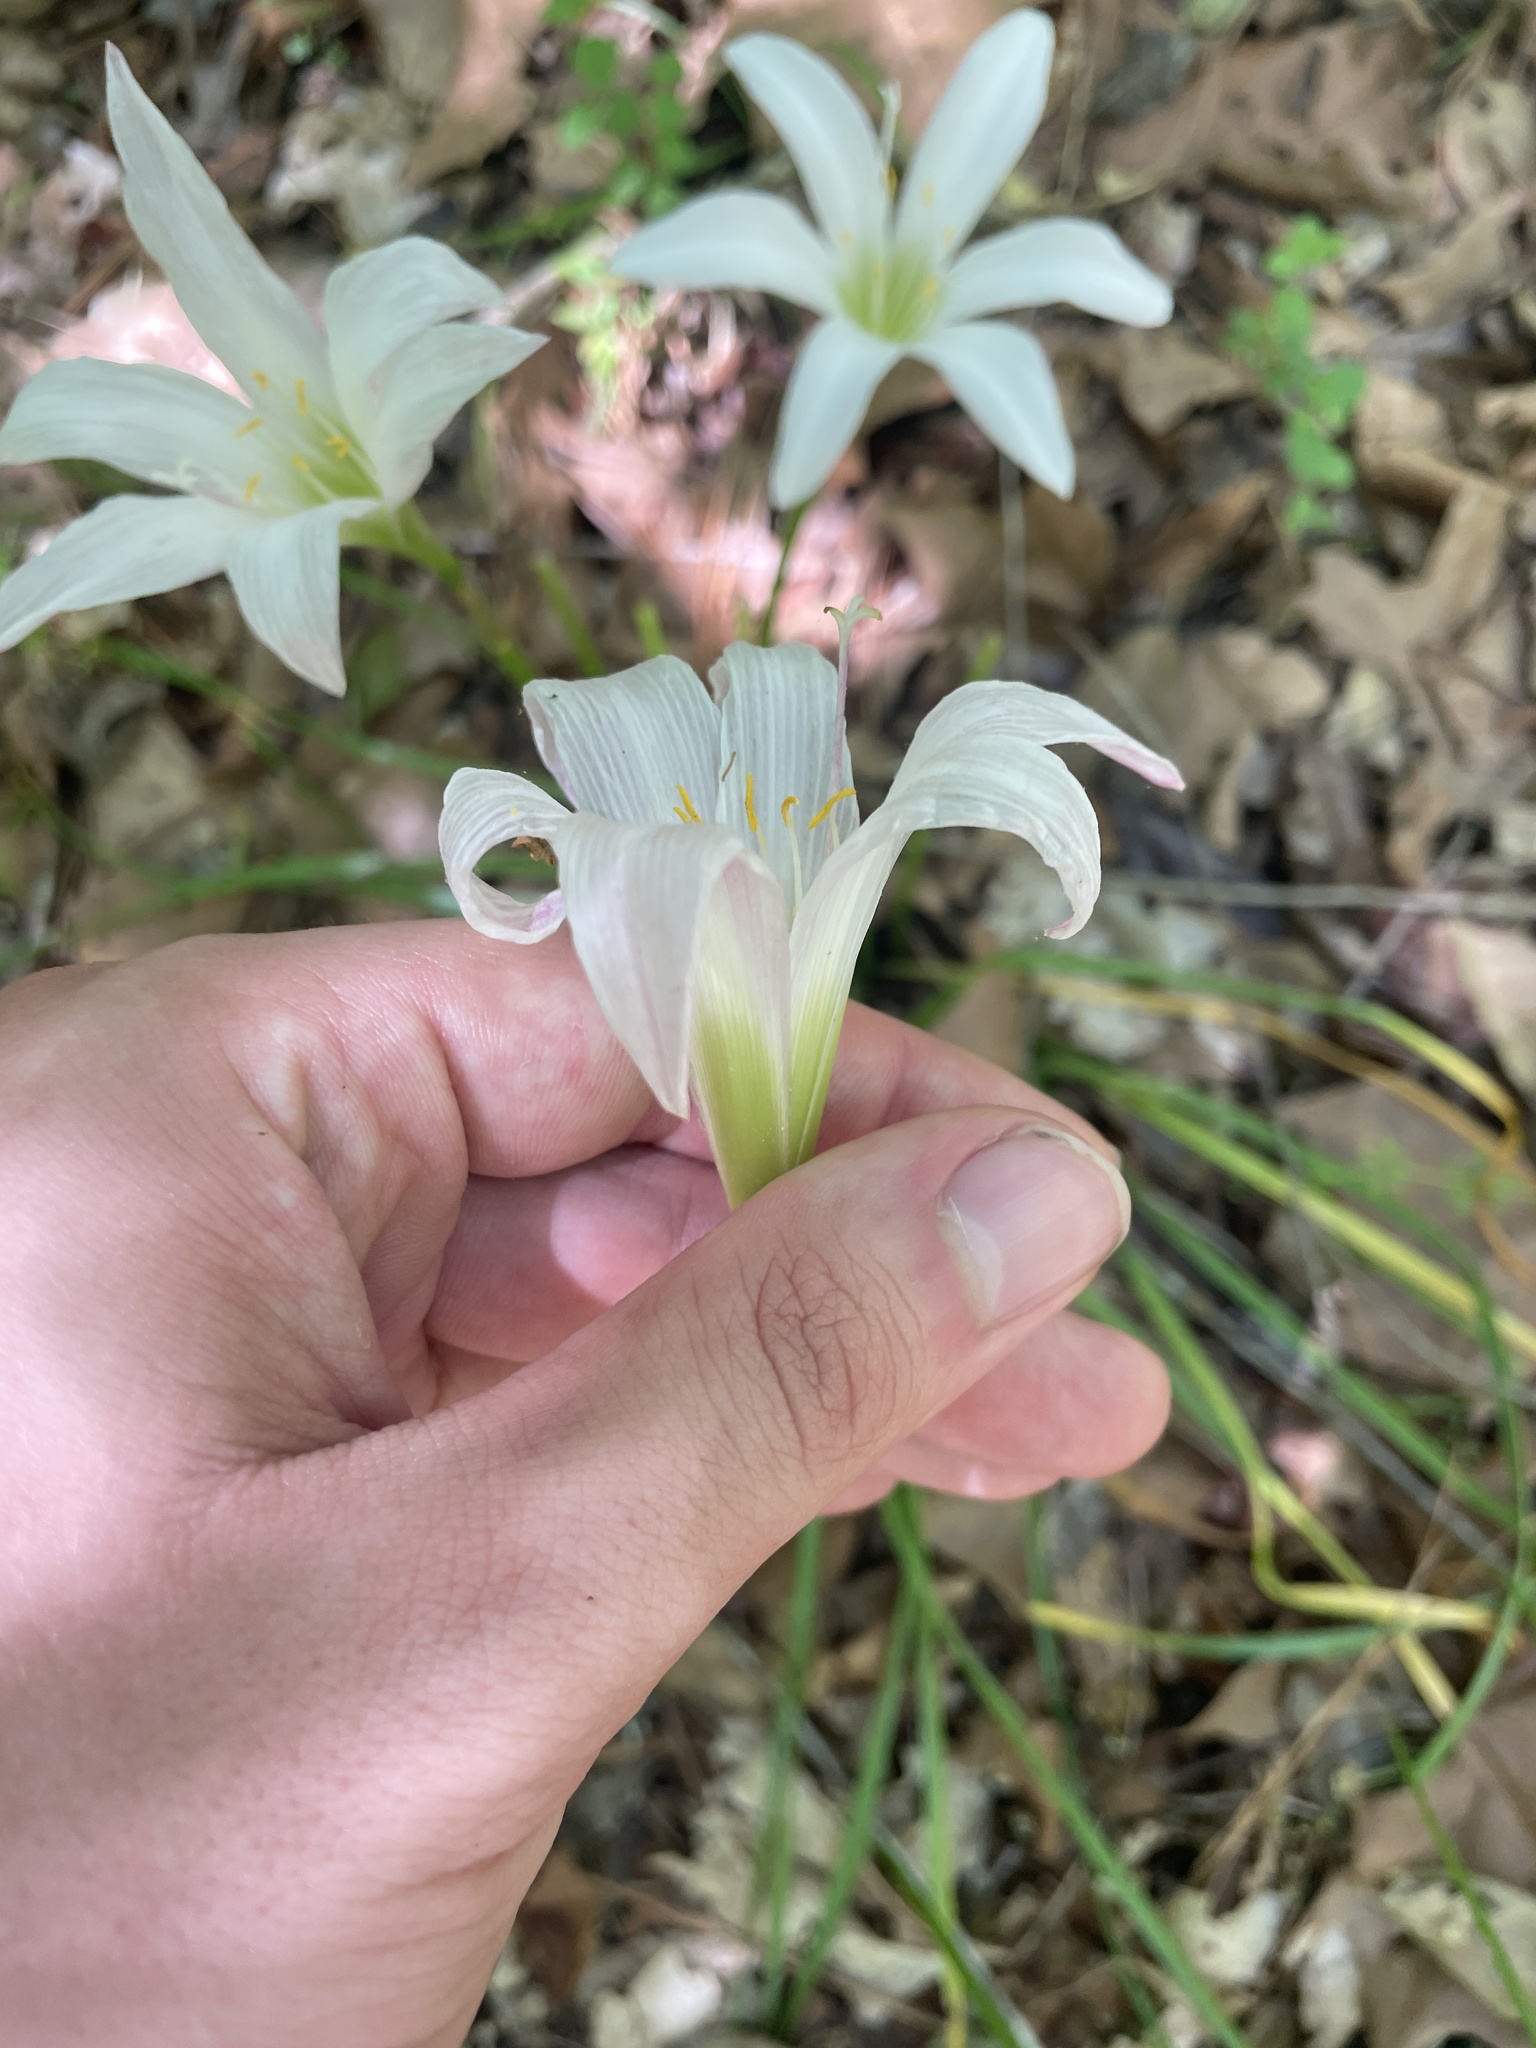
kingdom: Plantae
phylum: Tracheophyta
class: Liliopsida
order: Asparagales
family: Amaryllidaceae
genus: Zephyranthes
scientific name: Zephyranthes atamasco
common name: Atamasco lily
